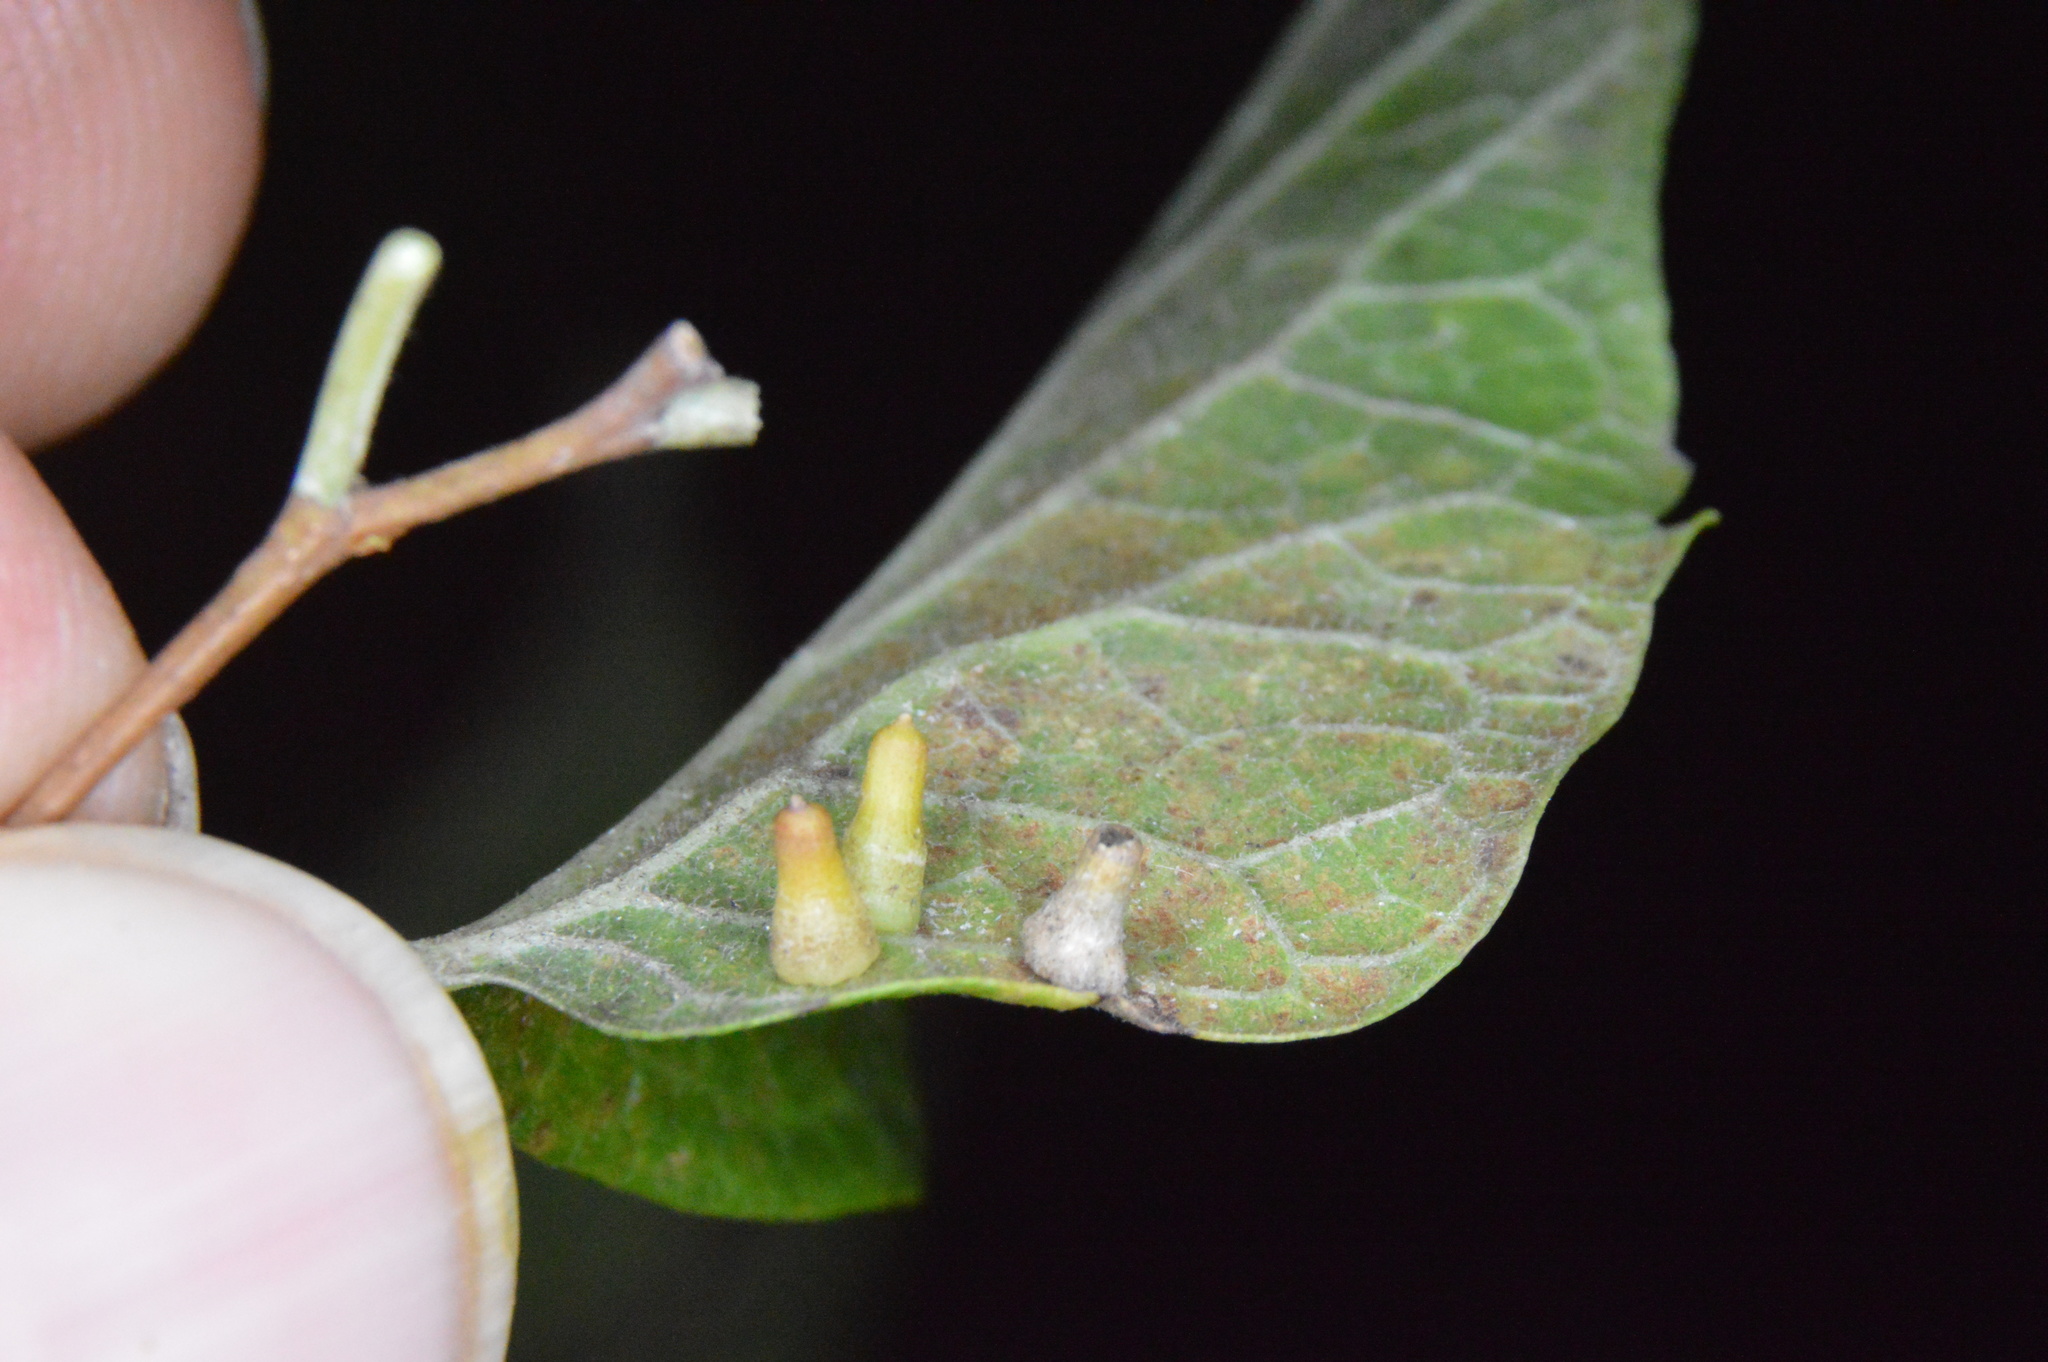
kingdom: Animalia
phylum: Arthropoda
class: Insecta
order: Diptera
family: Cecidomyiidae
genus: Celticecis
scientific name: Celticecis aciculata
